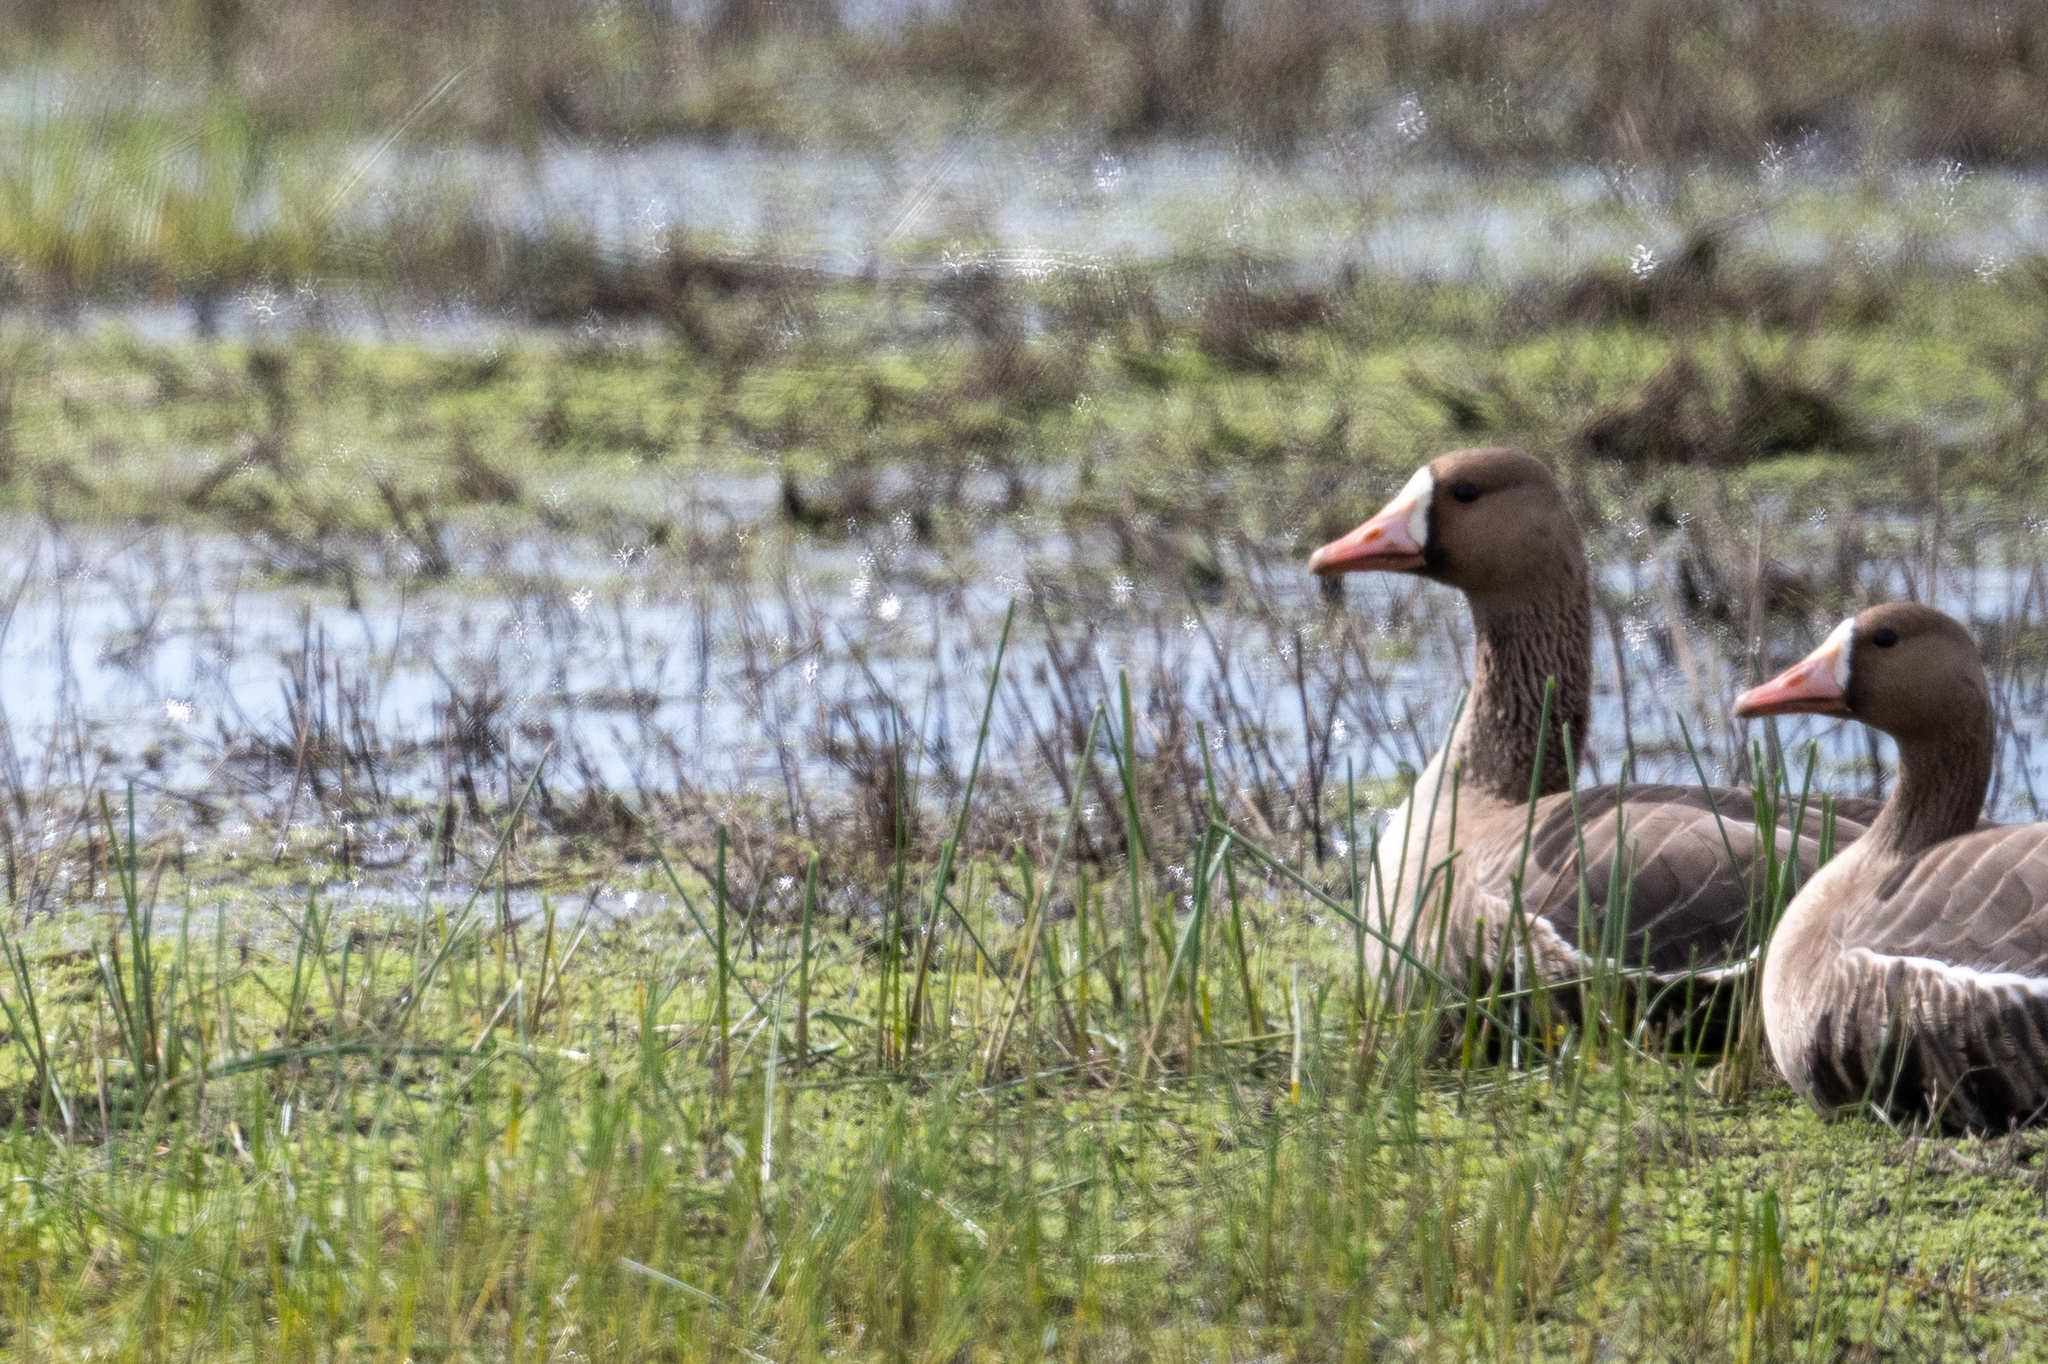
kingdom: Animalia
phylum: Chordata
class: Aves
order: Anseriformes
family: Anatidae
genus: Anser
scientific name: Anser albifrons
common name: Greater white-fronted goose
